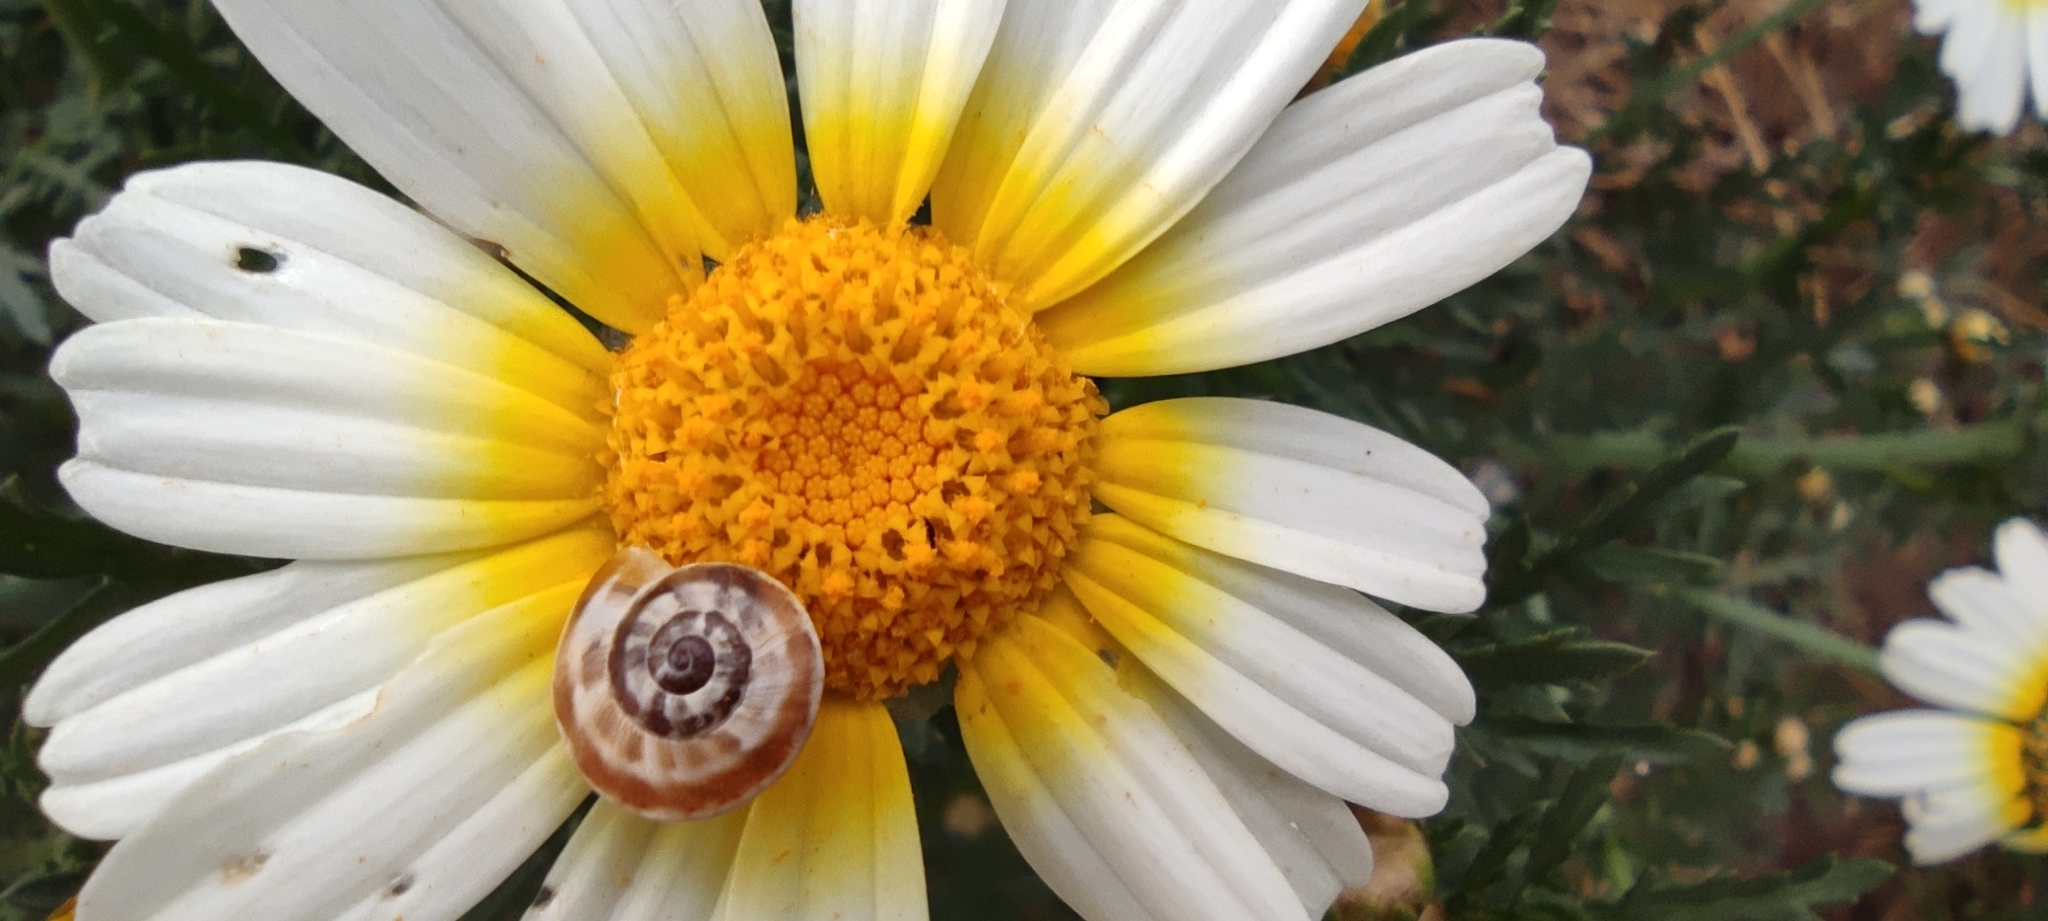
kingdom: Animalia
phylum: Mollusca
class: Gastropoda
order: Stylommatophora
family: Helicidae
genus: Theba
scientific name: Theba pisana
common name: White snail
